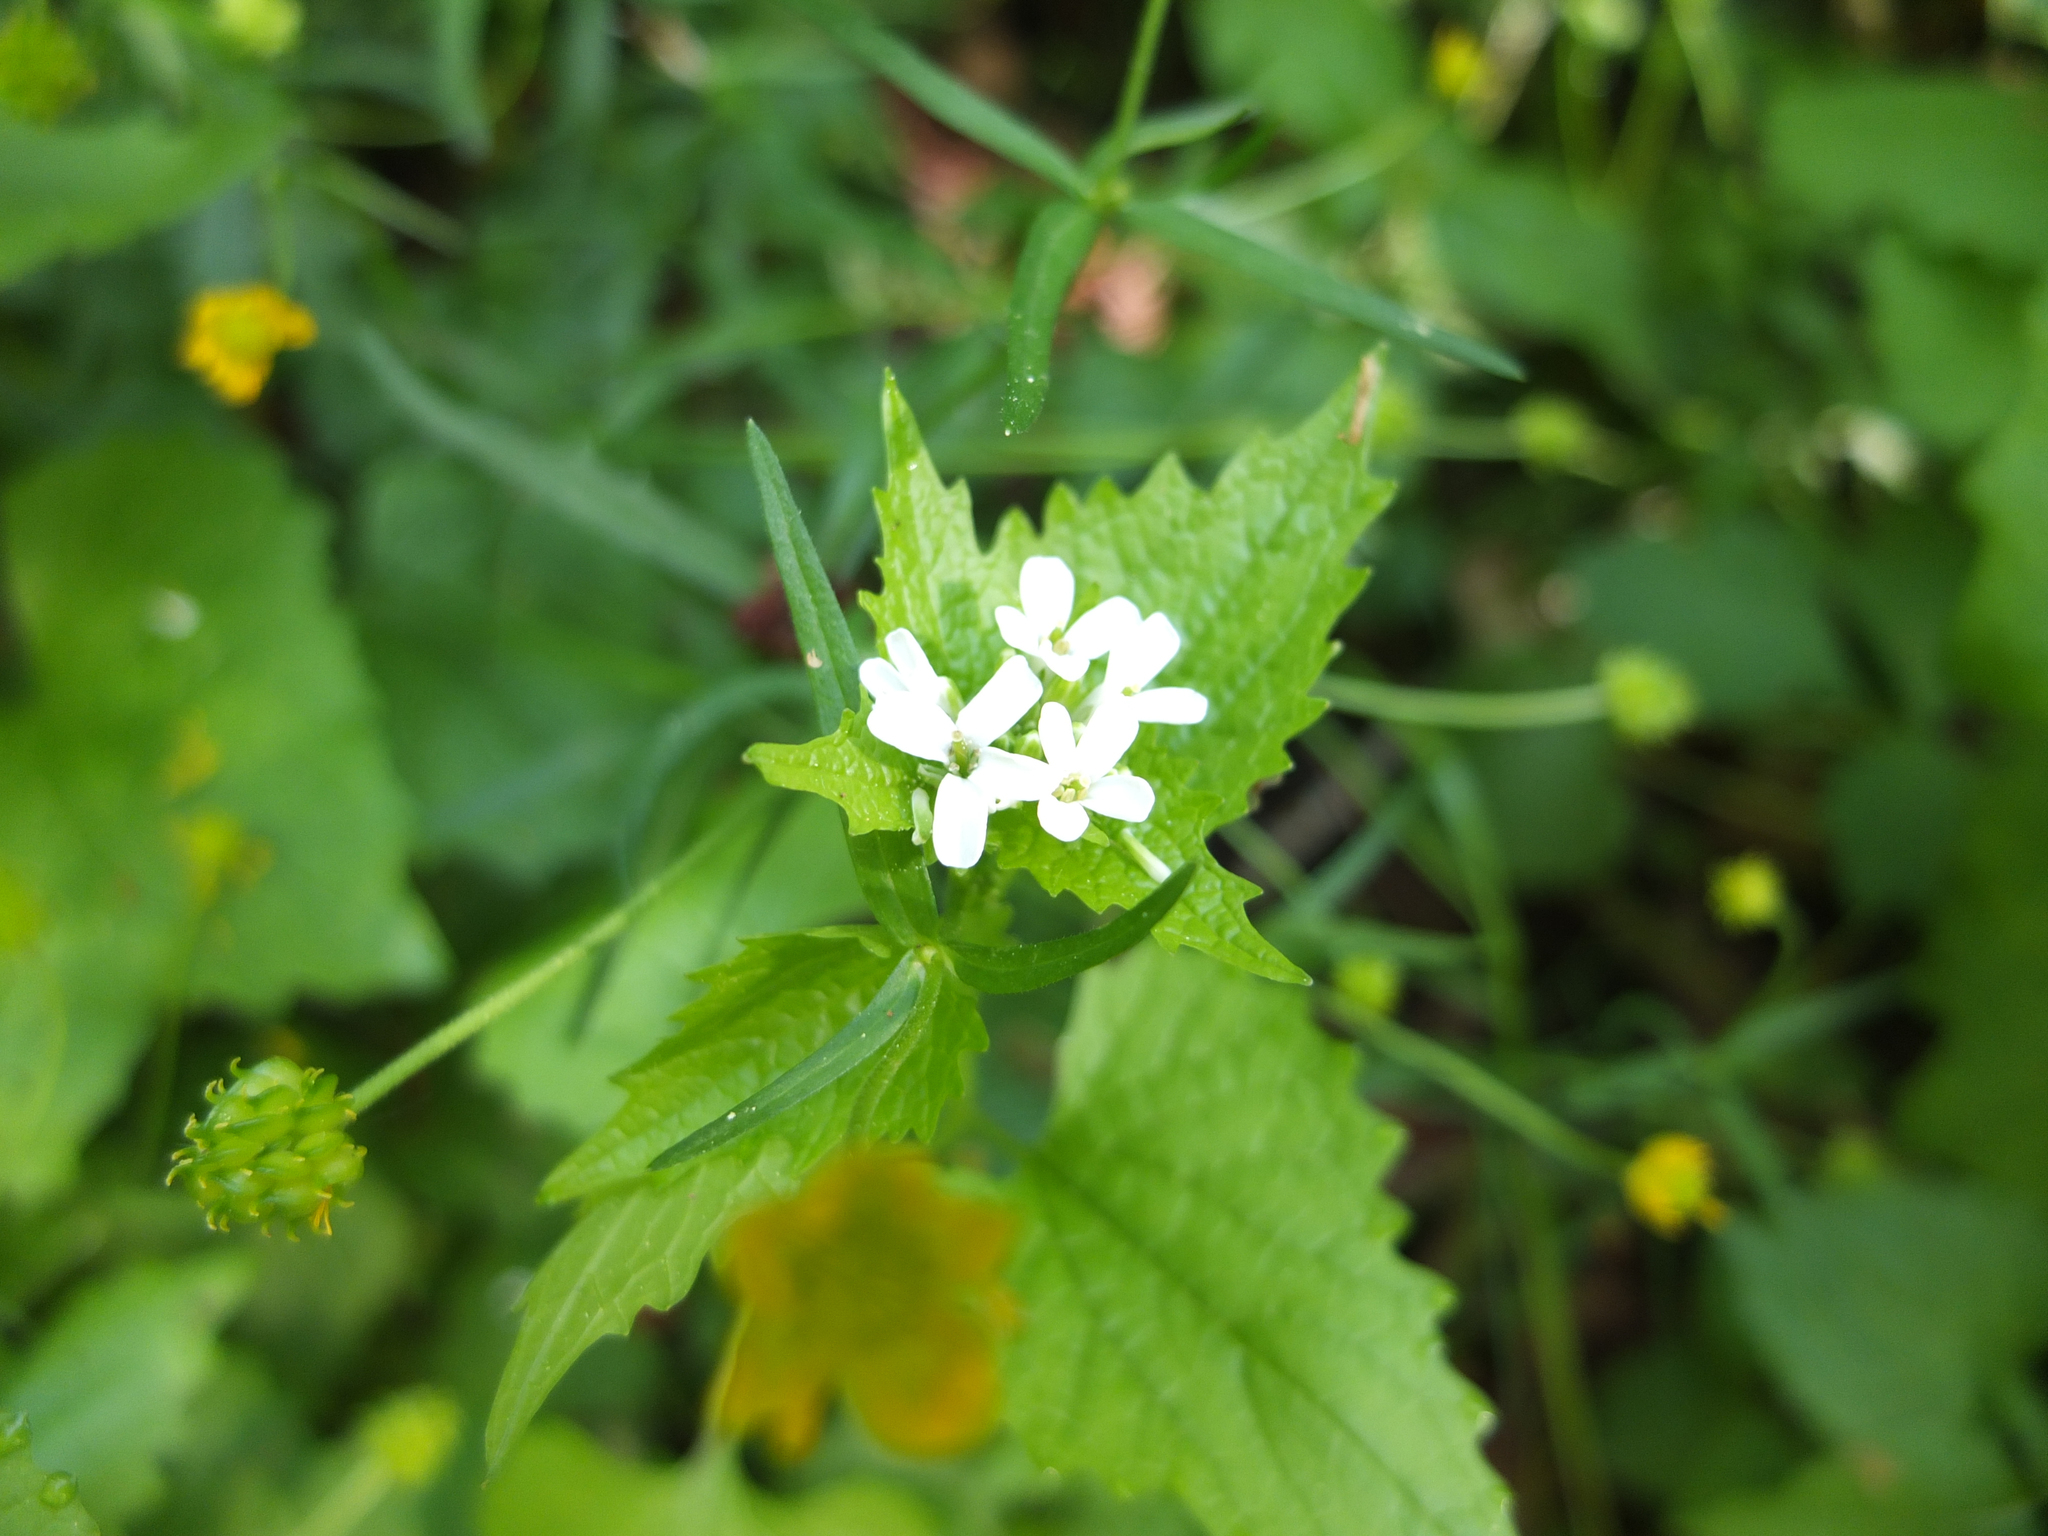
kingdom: Plantae
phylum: Tracheophyta
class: Magnoliopsida
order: Brassicales
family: Brassicaceae
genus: Alliaria
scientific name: Alliaria petiolata
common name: Garlic mustard
